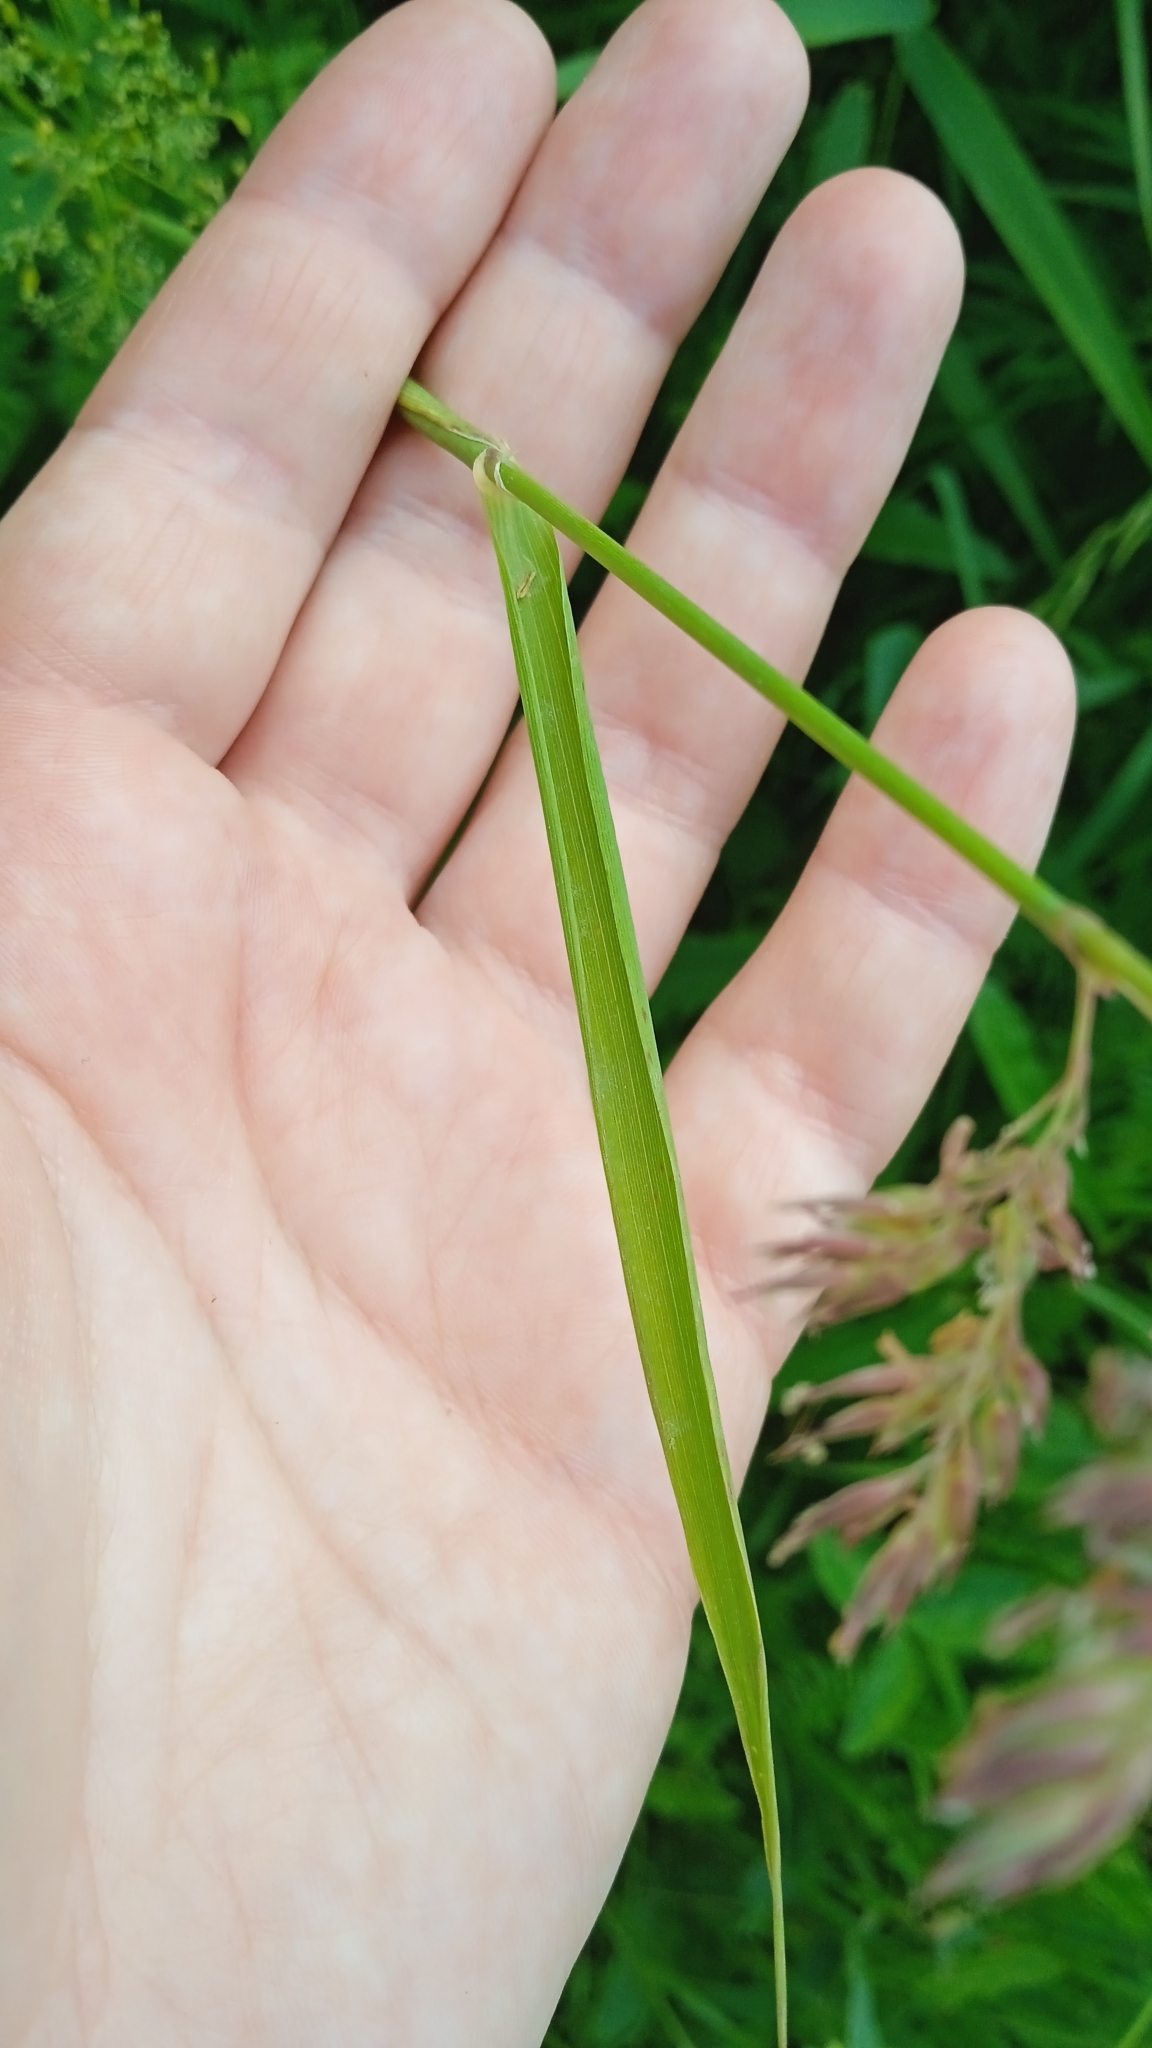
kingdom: Plantae
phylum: Tracheophyta
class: Liliopsida
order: Poales
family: Poaceae
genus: Phalaris
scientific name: Phalaris arundinacea
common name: Reed canary-grass
